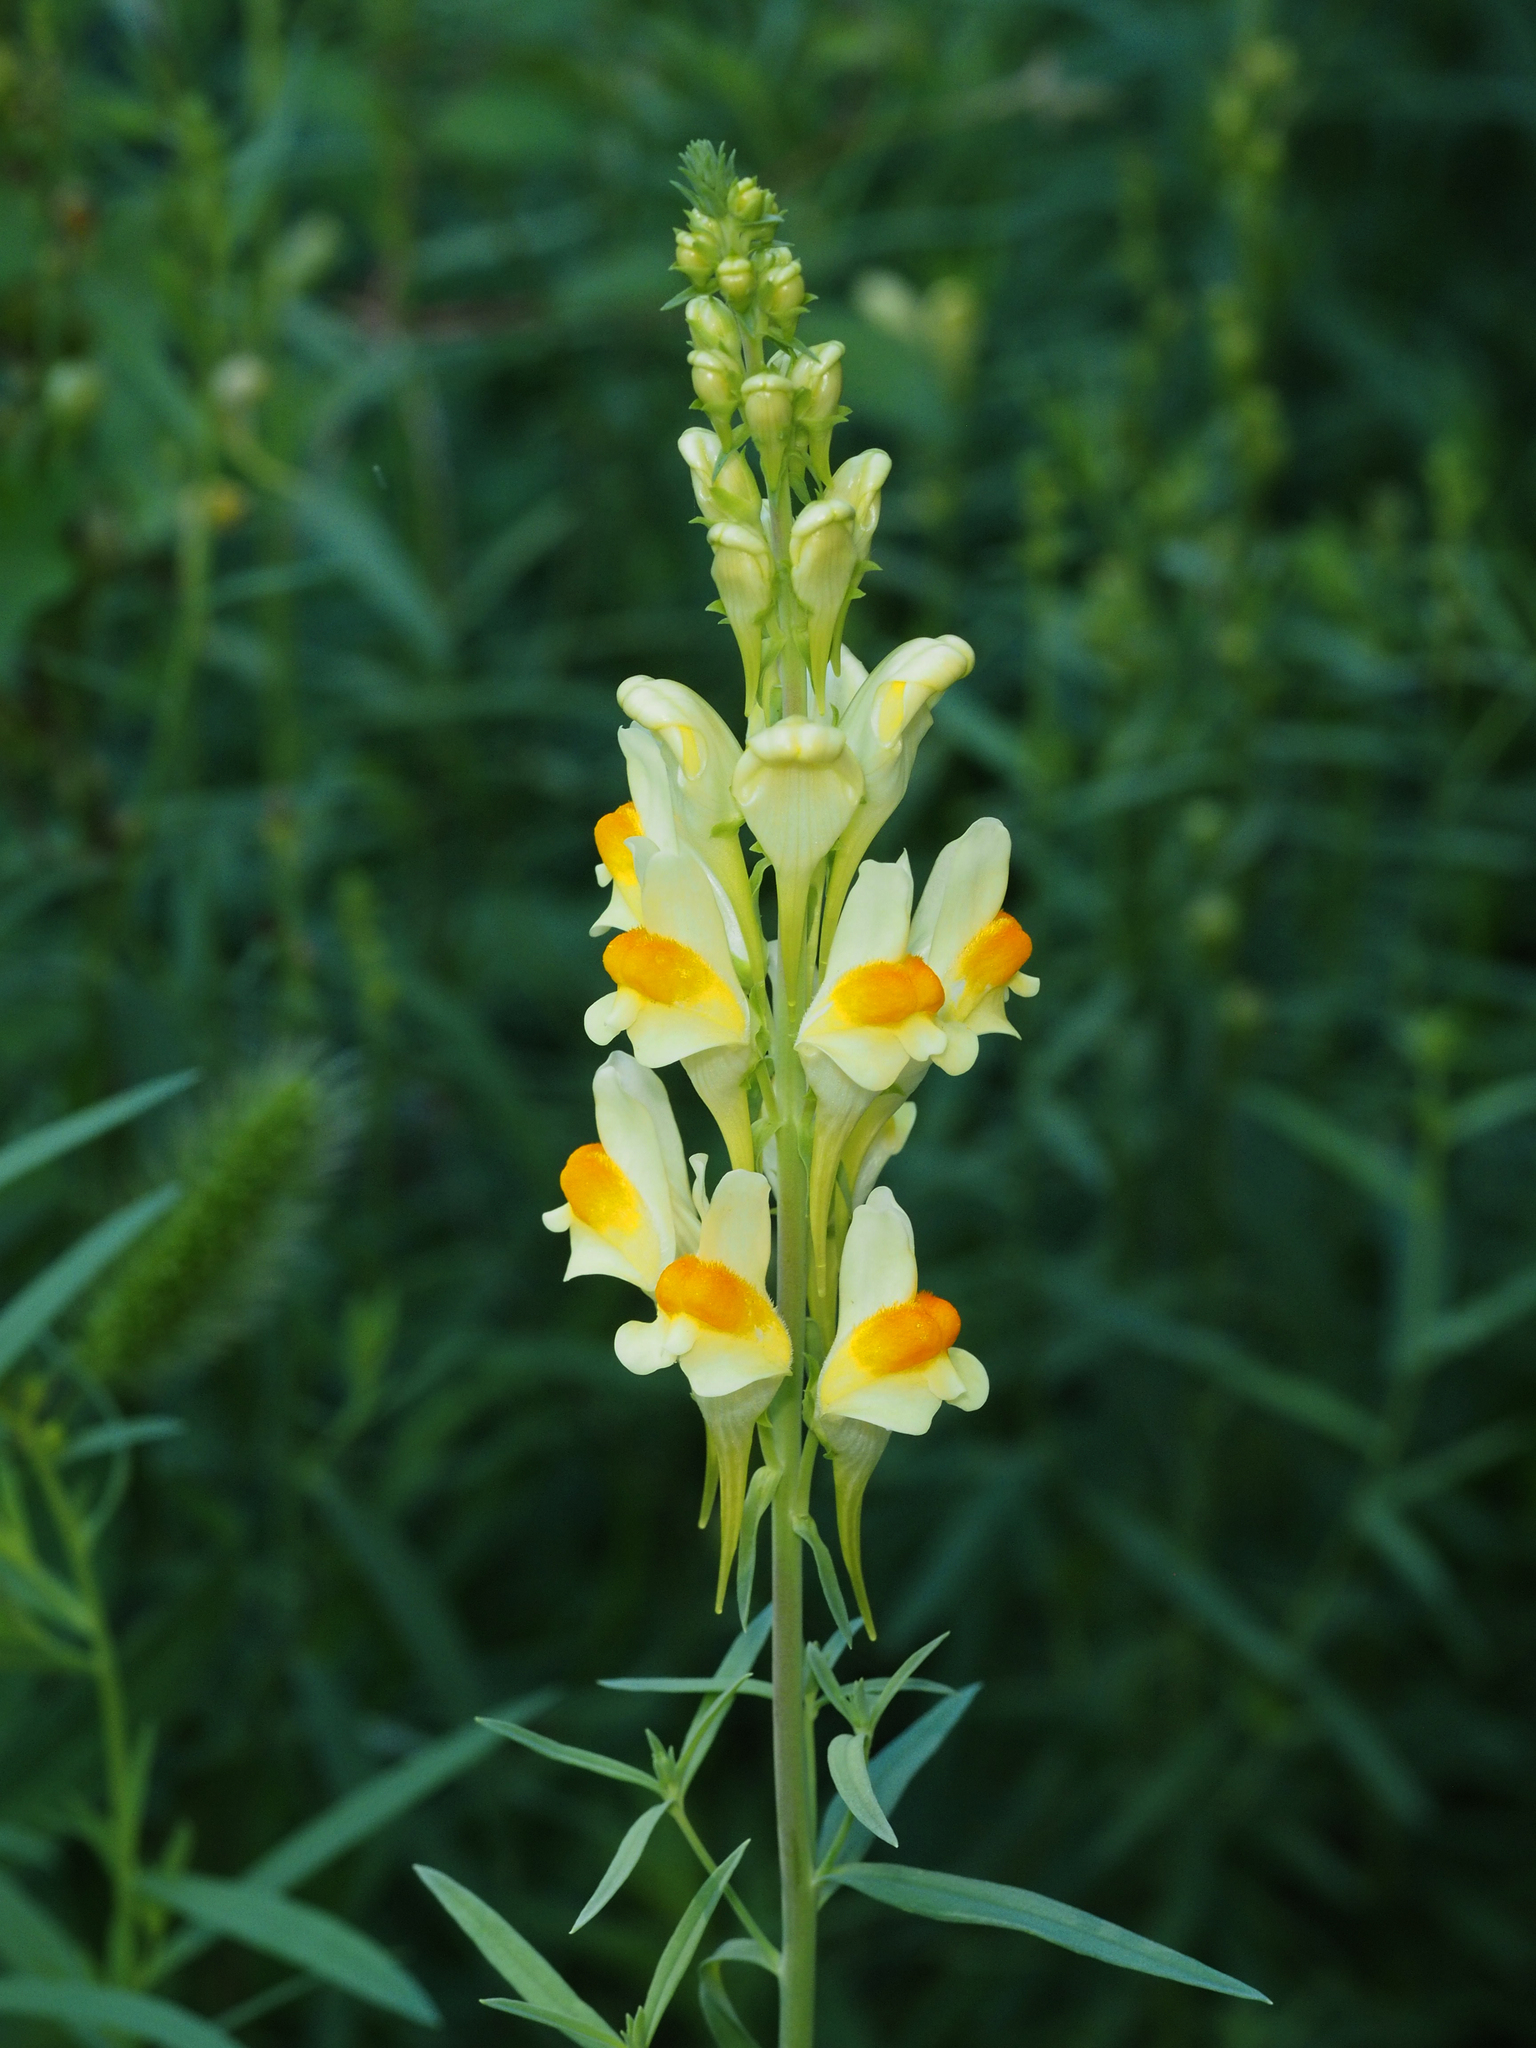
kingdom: Plantae
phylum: Tracheophyta
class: Magnoliopsida
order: Lamiales
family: Plantaginaceae
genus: Linaria
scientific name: Linaria vulgaris
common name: Butter and eggs
